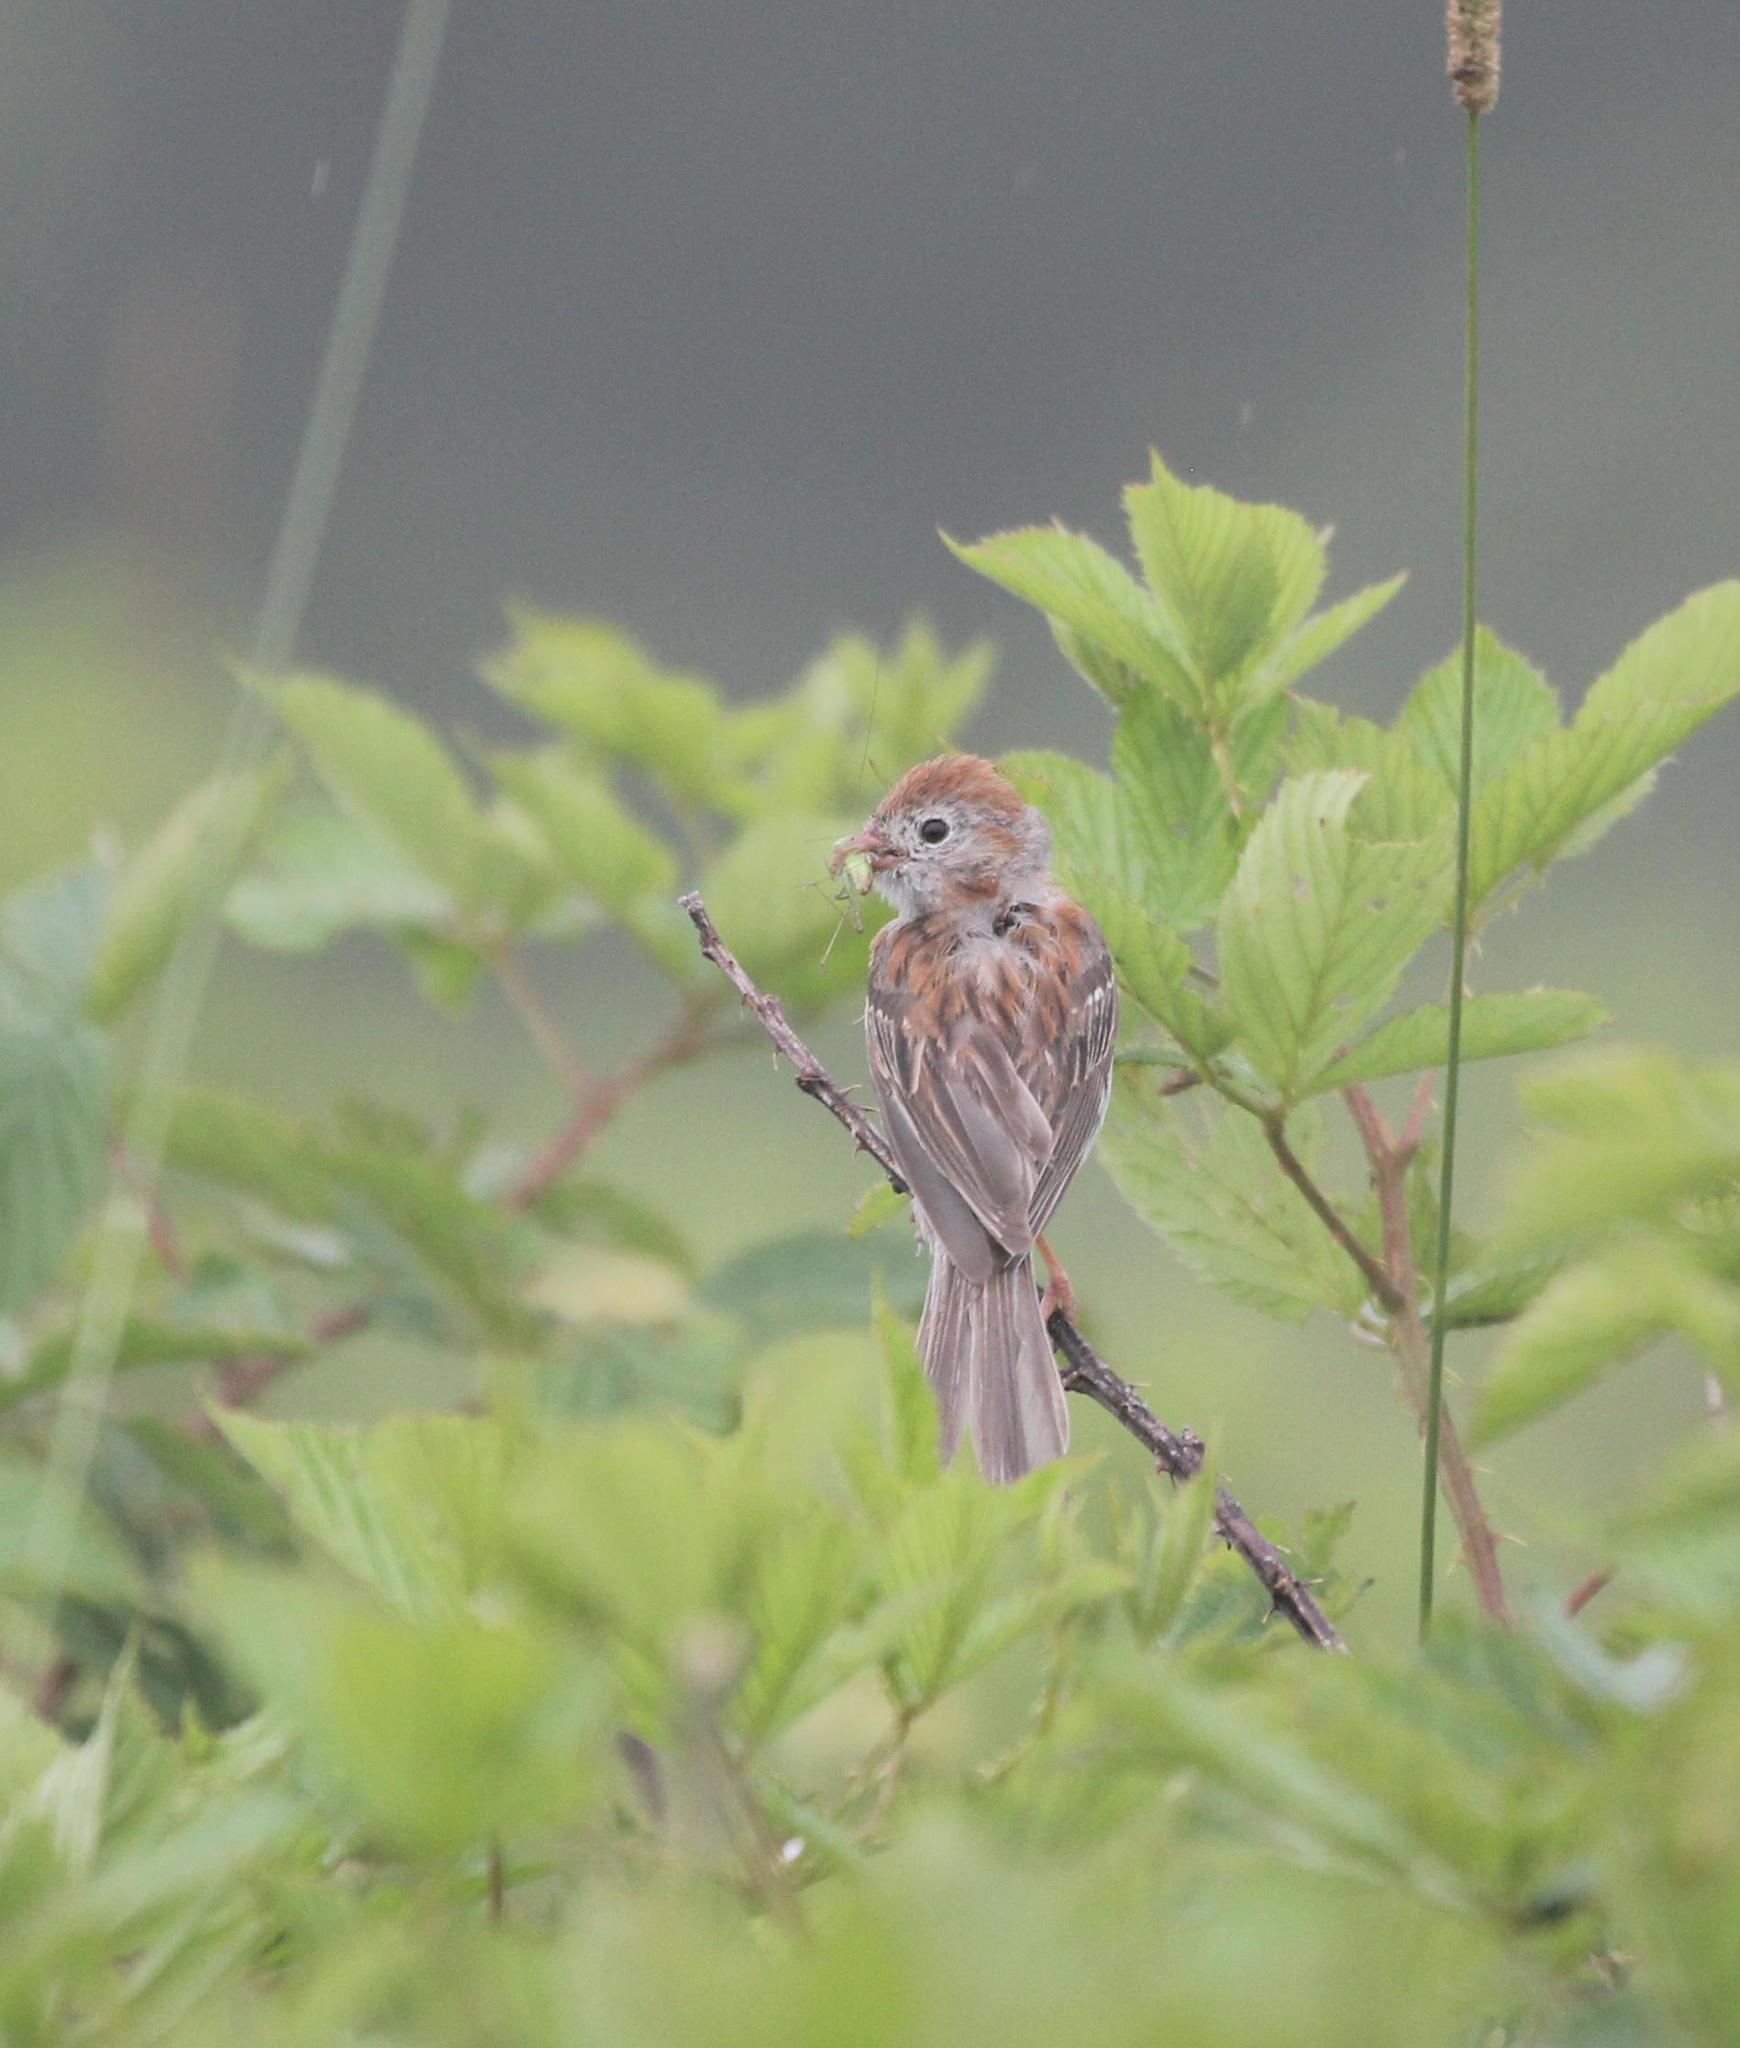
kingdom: Animalia
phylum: Chordata
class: Aves
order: Passeriformes
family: Passerellidae
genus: Spizella
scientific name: Spizella pusilla
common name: Field sparrow
